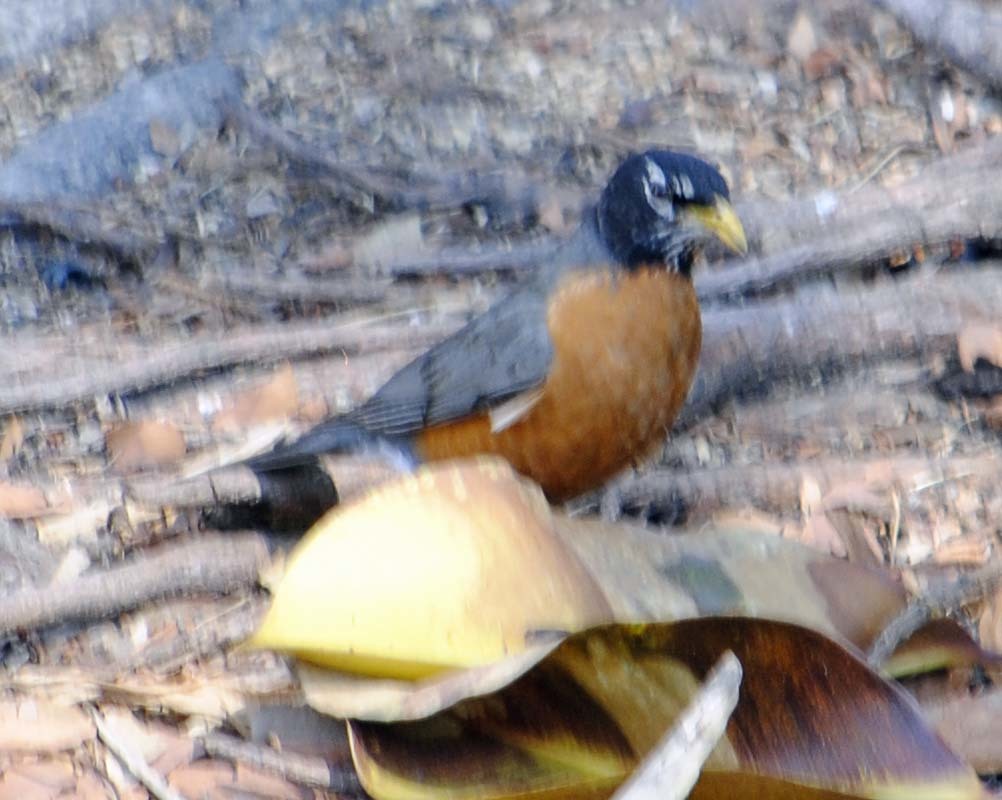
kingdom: Animalia
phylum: Chordata
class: Aves
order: Passeriformes
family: Turdidae
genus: Turdus
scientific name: Turdus migratorius
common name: American robin
